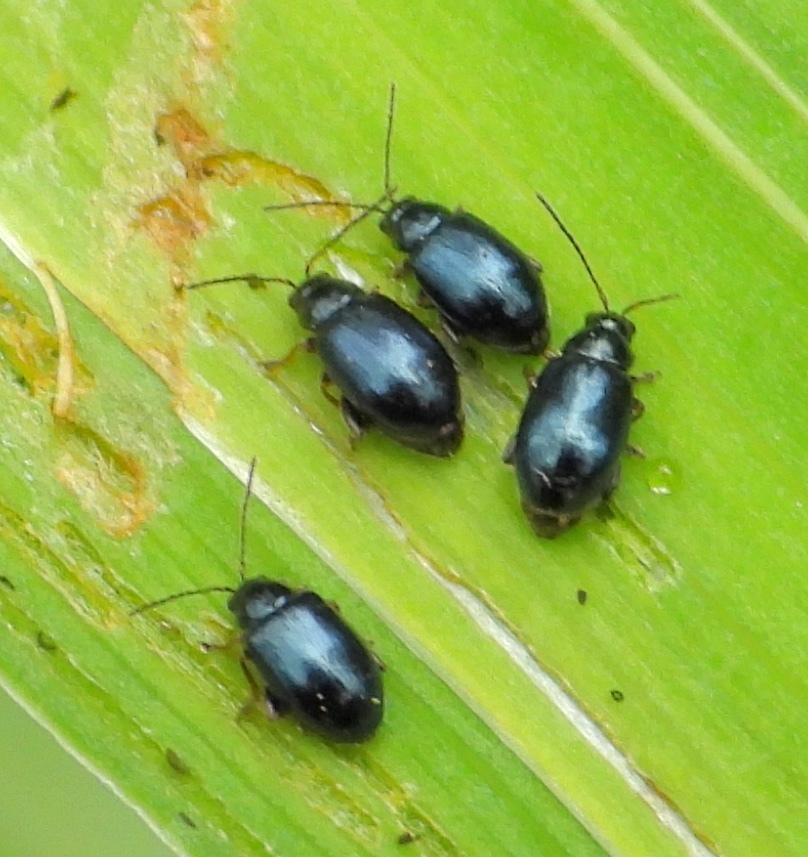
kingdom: Animalia
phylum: Arthropoda
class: Insecta
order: Coleoptera
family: Chrysomelidae
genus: Aphthona
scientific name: Aphthona nonstriata
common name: Iris flea beetle
